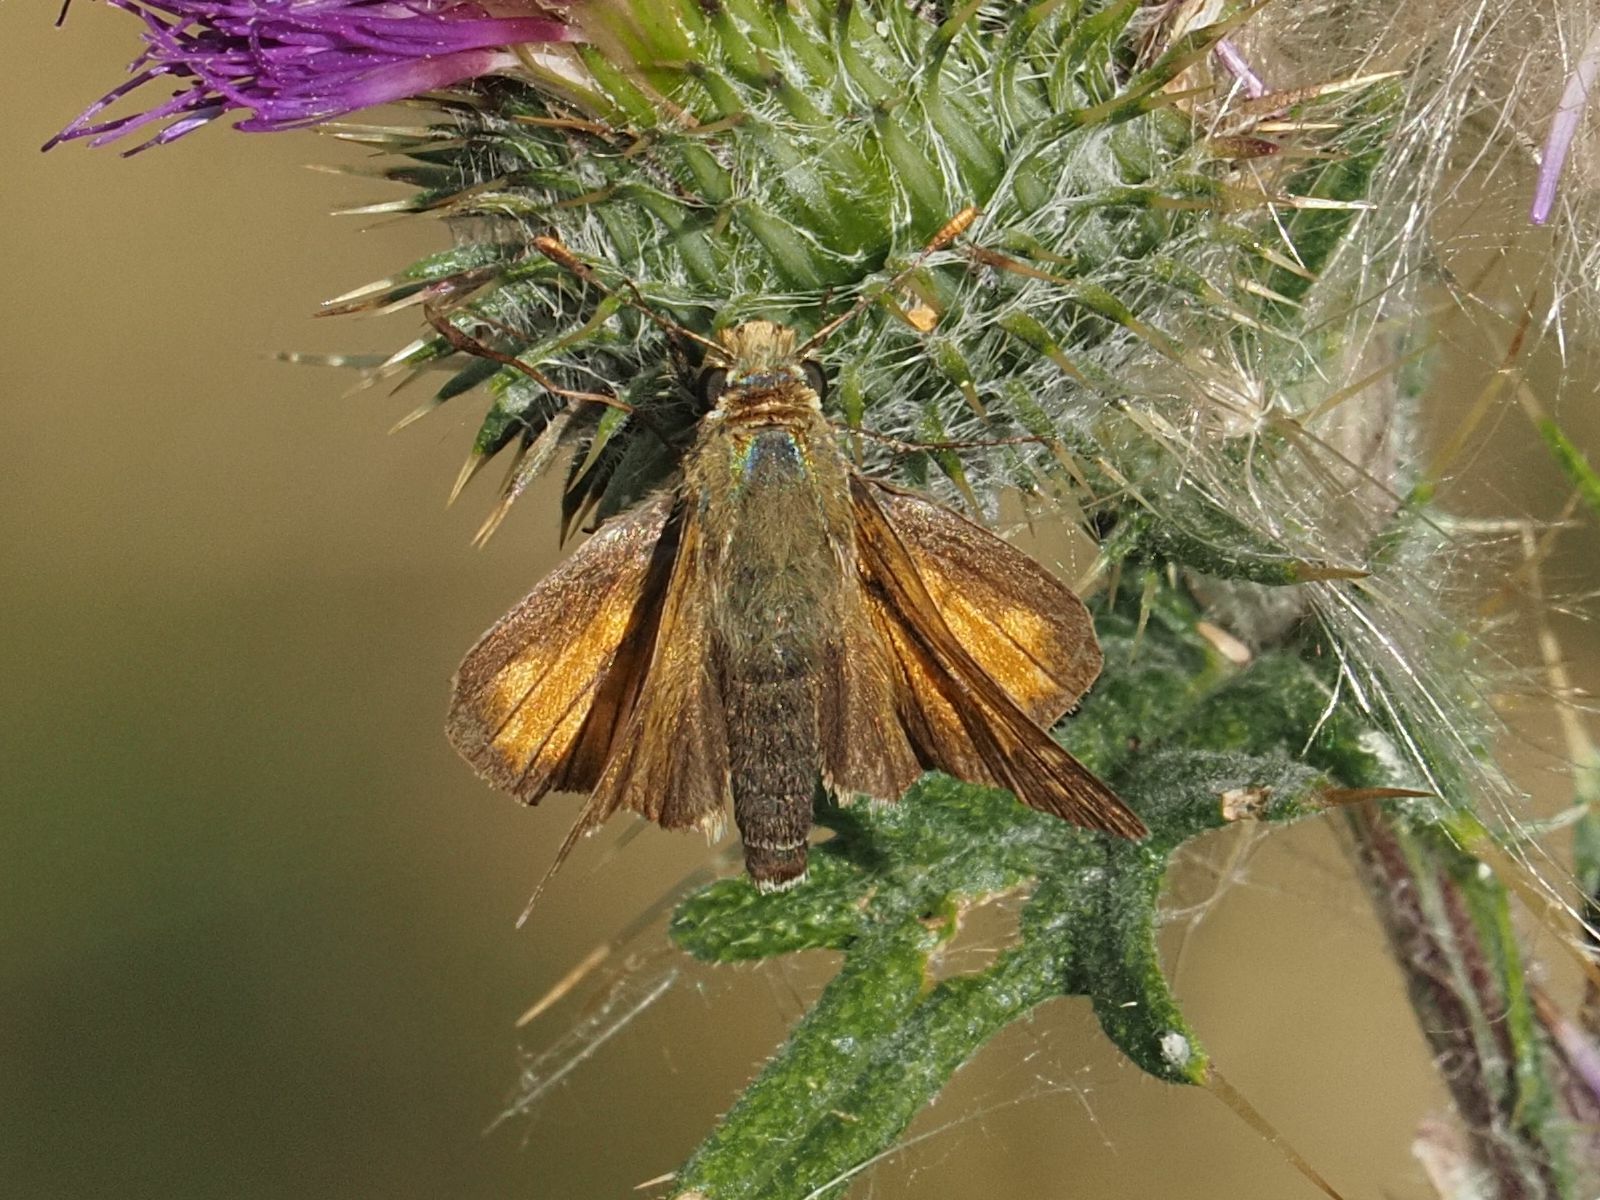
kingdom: Animalia
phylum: Arthropoda
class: Insecta
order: Lepidoptera
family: Hesperiidae
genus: Ochlodes
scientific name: Ochlodes venata
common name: Large skipper
